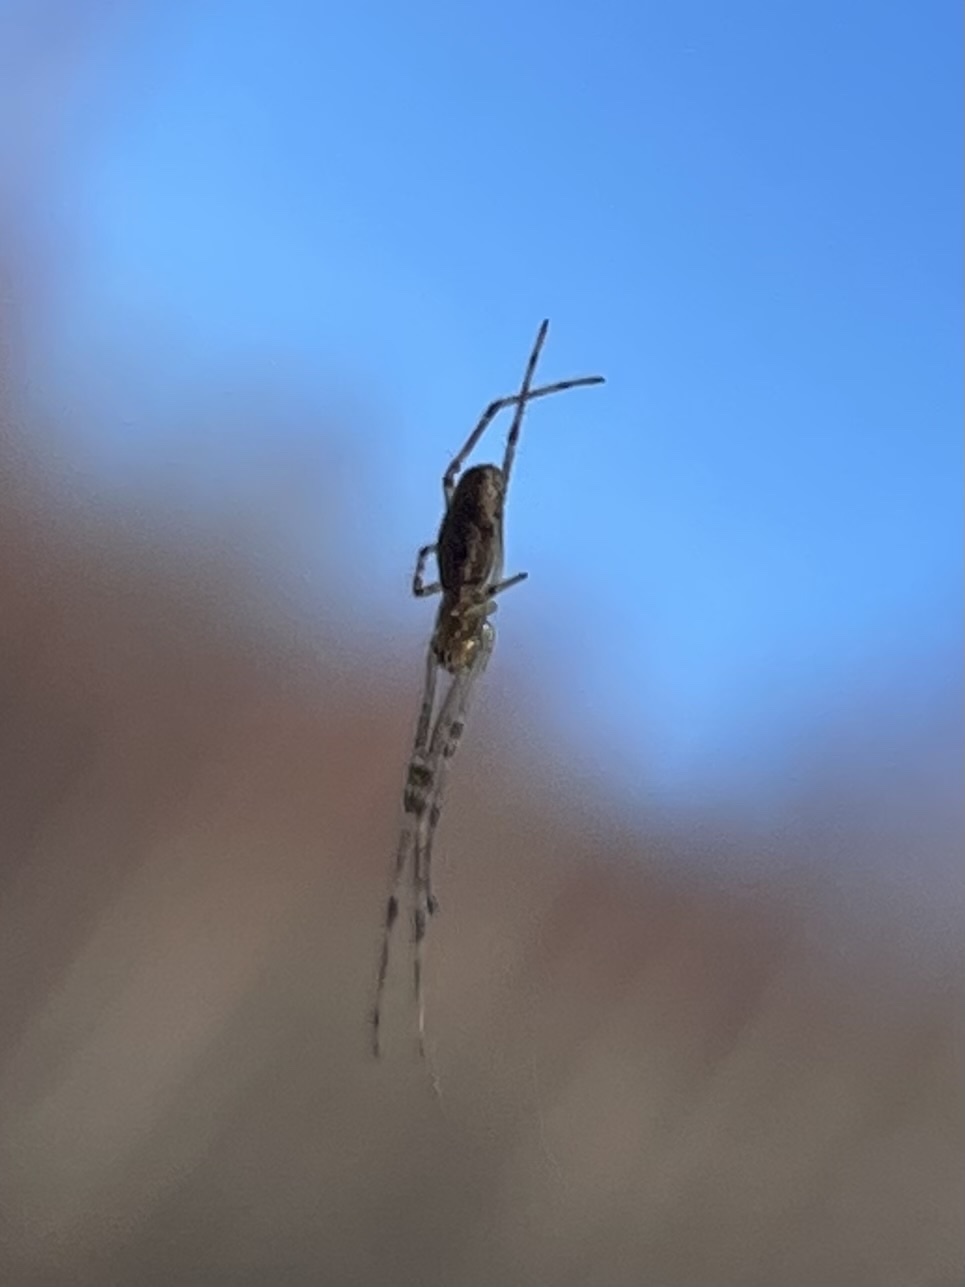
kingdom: Animalia
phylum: Arthropoda
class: Arachnida
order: Araneae
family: Tetragnathidae
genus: Tetragnatha
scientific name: Tetragnatha
